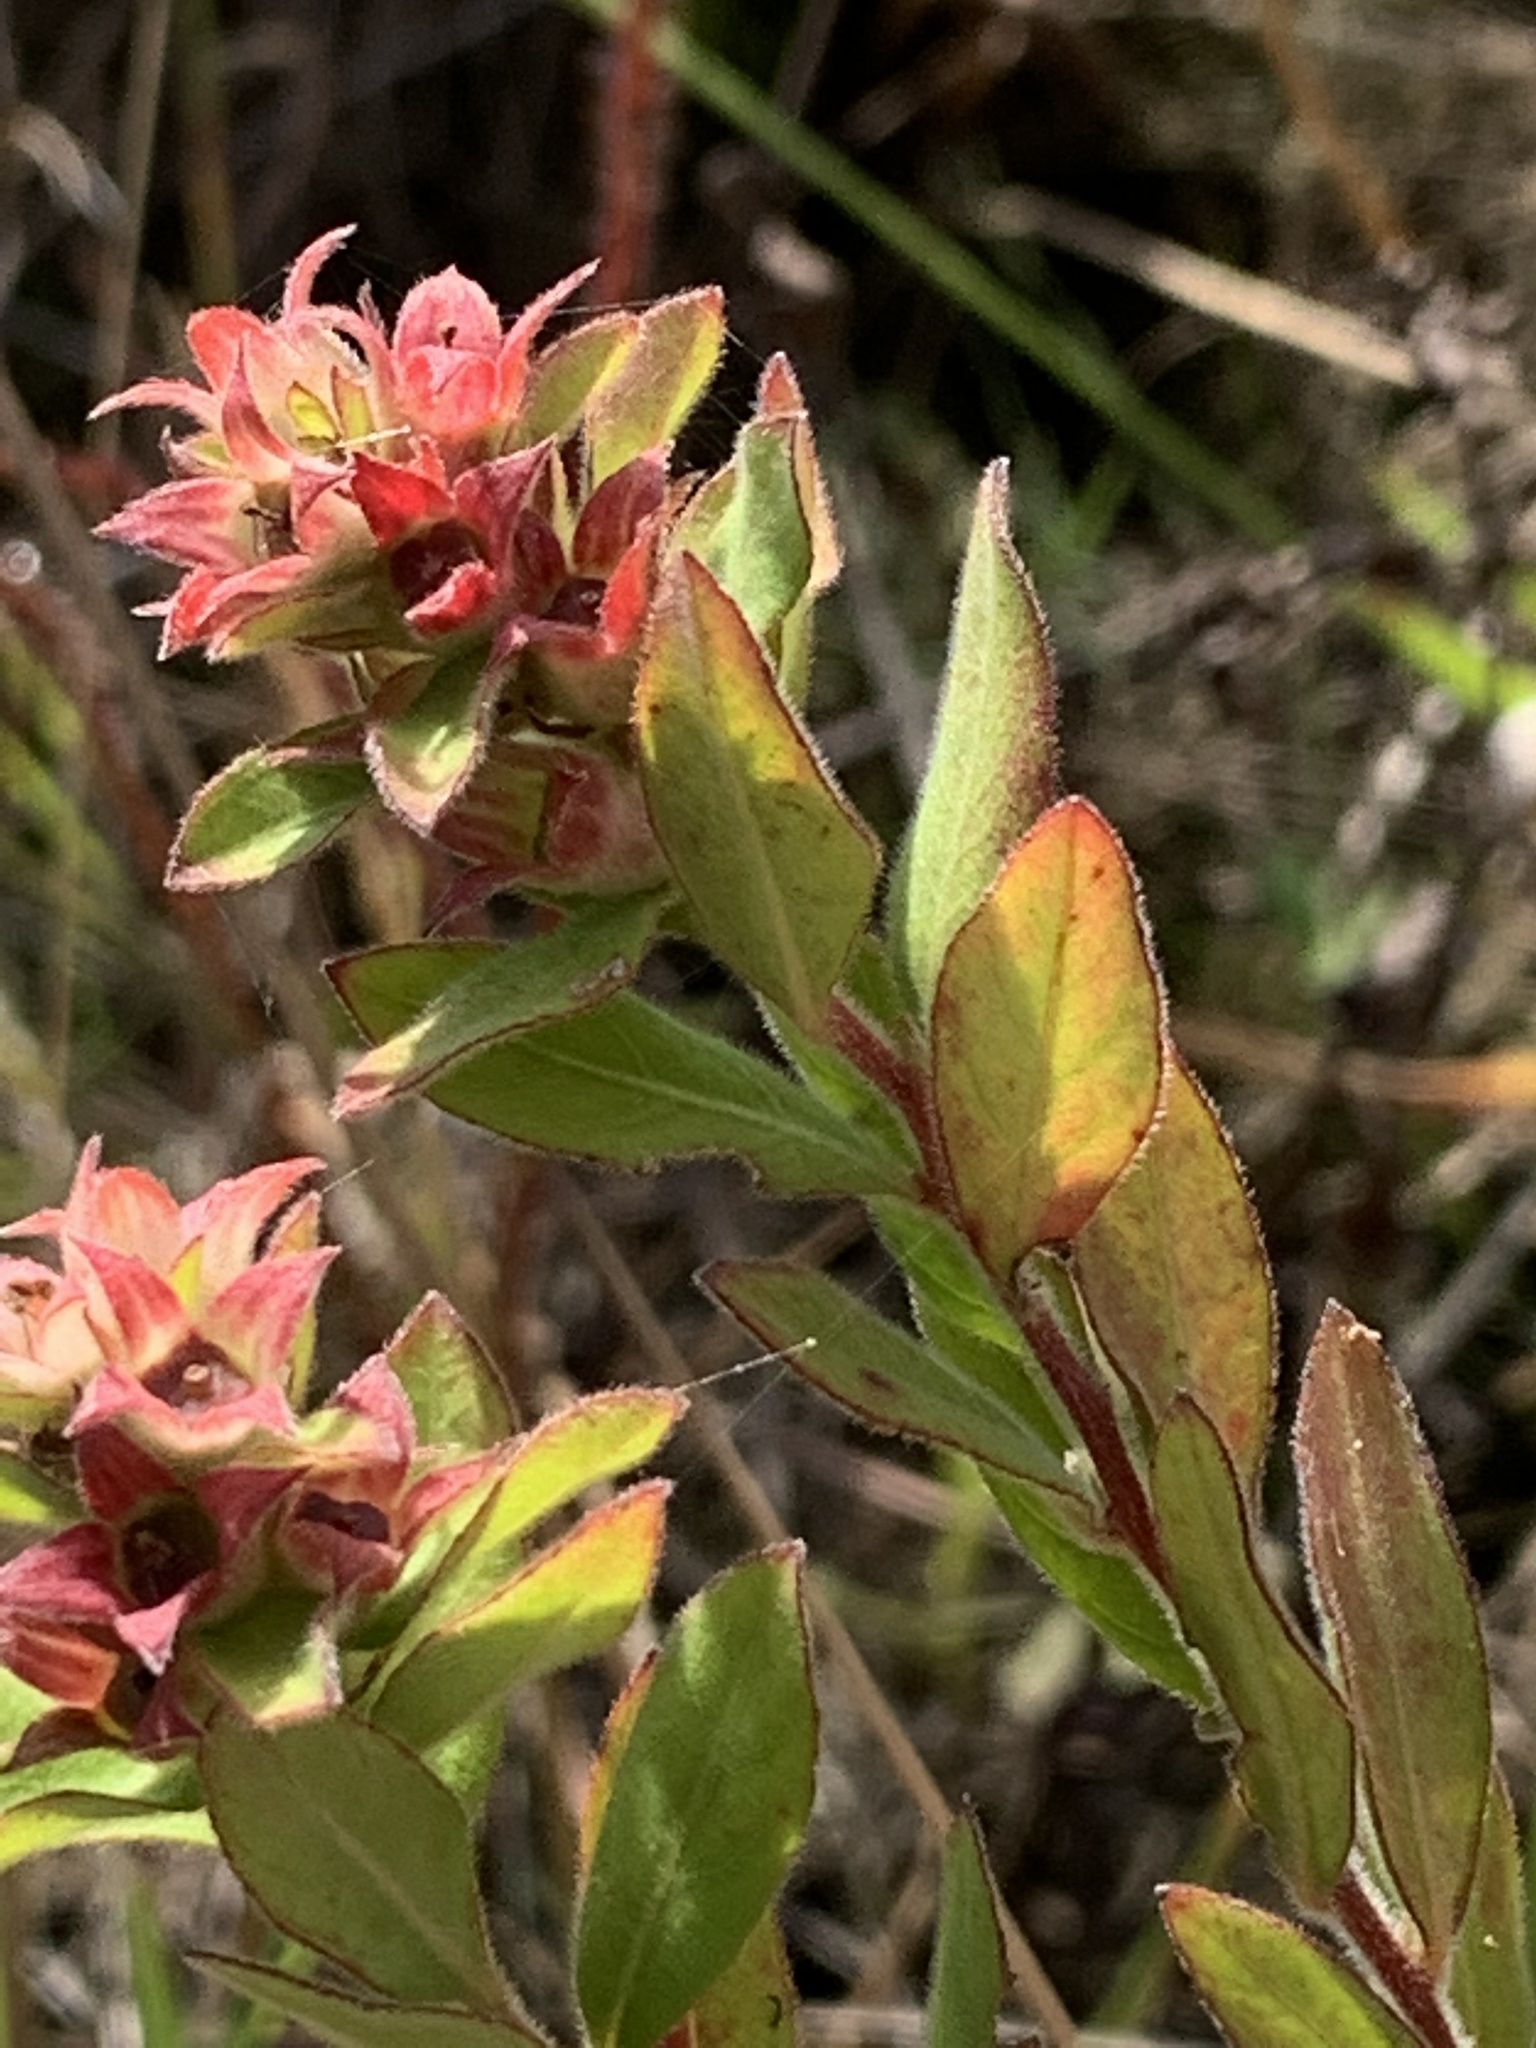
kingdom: Plantae
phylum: Tracheophyta
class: Magnoliopsida
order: Myrtales
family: Onagraceae
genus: Ludwigia
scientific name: Ludwigia pilosa
